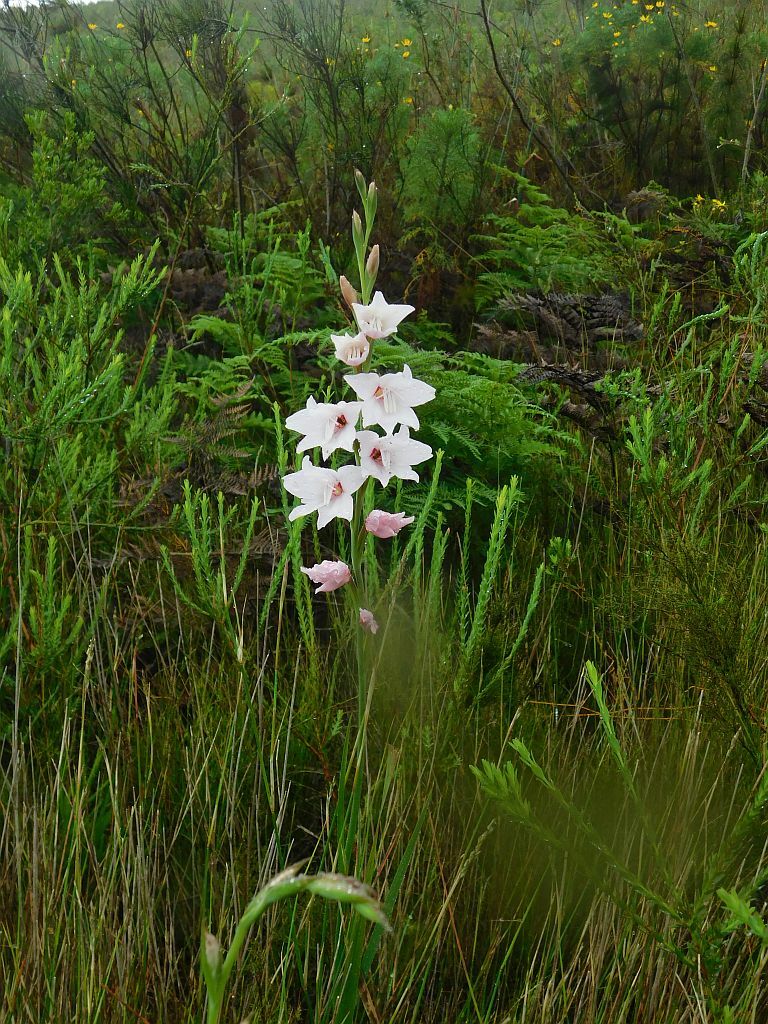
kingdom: Plantae
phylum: Tracheophyta
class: Liliopsida
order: Asparagales
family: Iridaceae
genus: Gladiolus
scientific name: Gladiolus carneus
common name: Painted-lady
